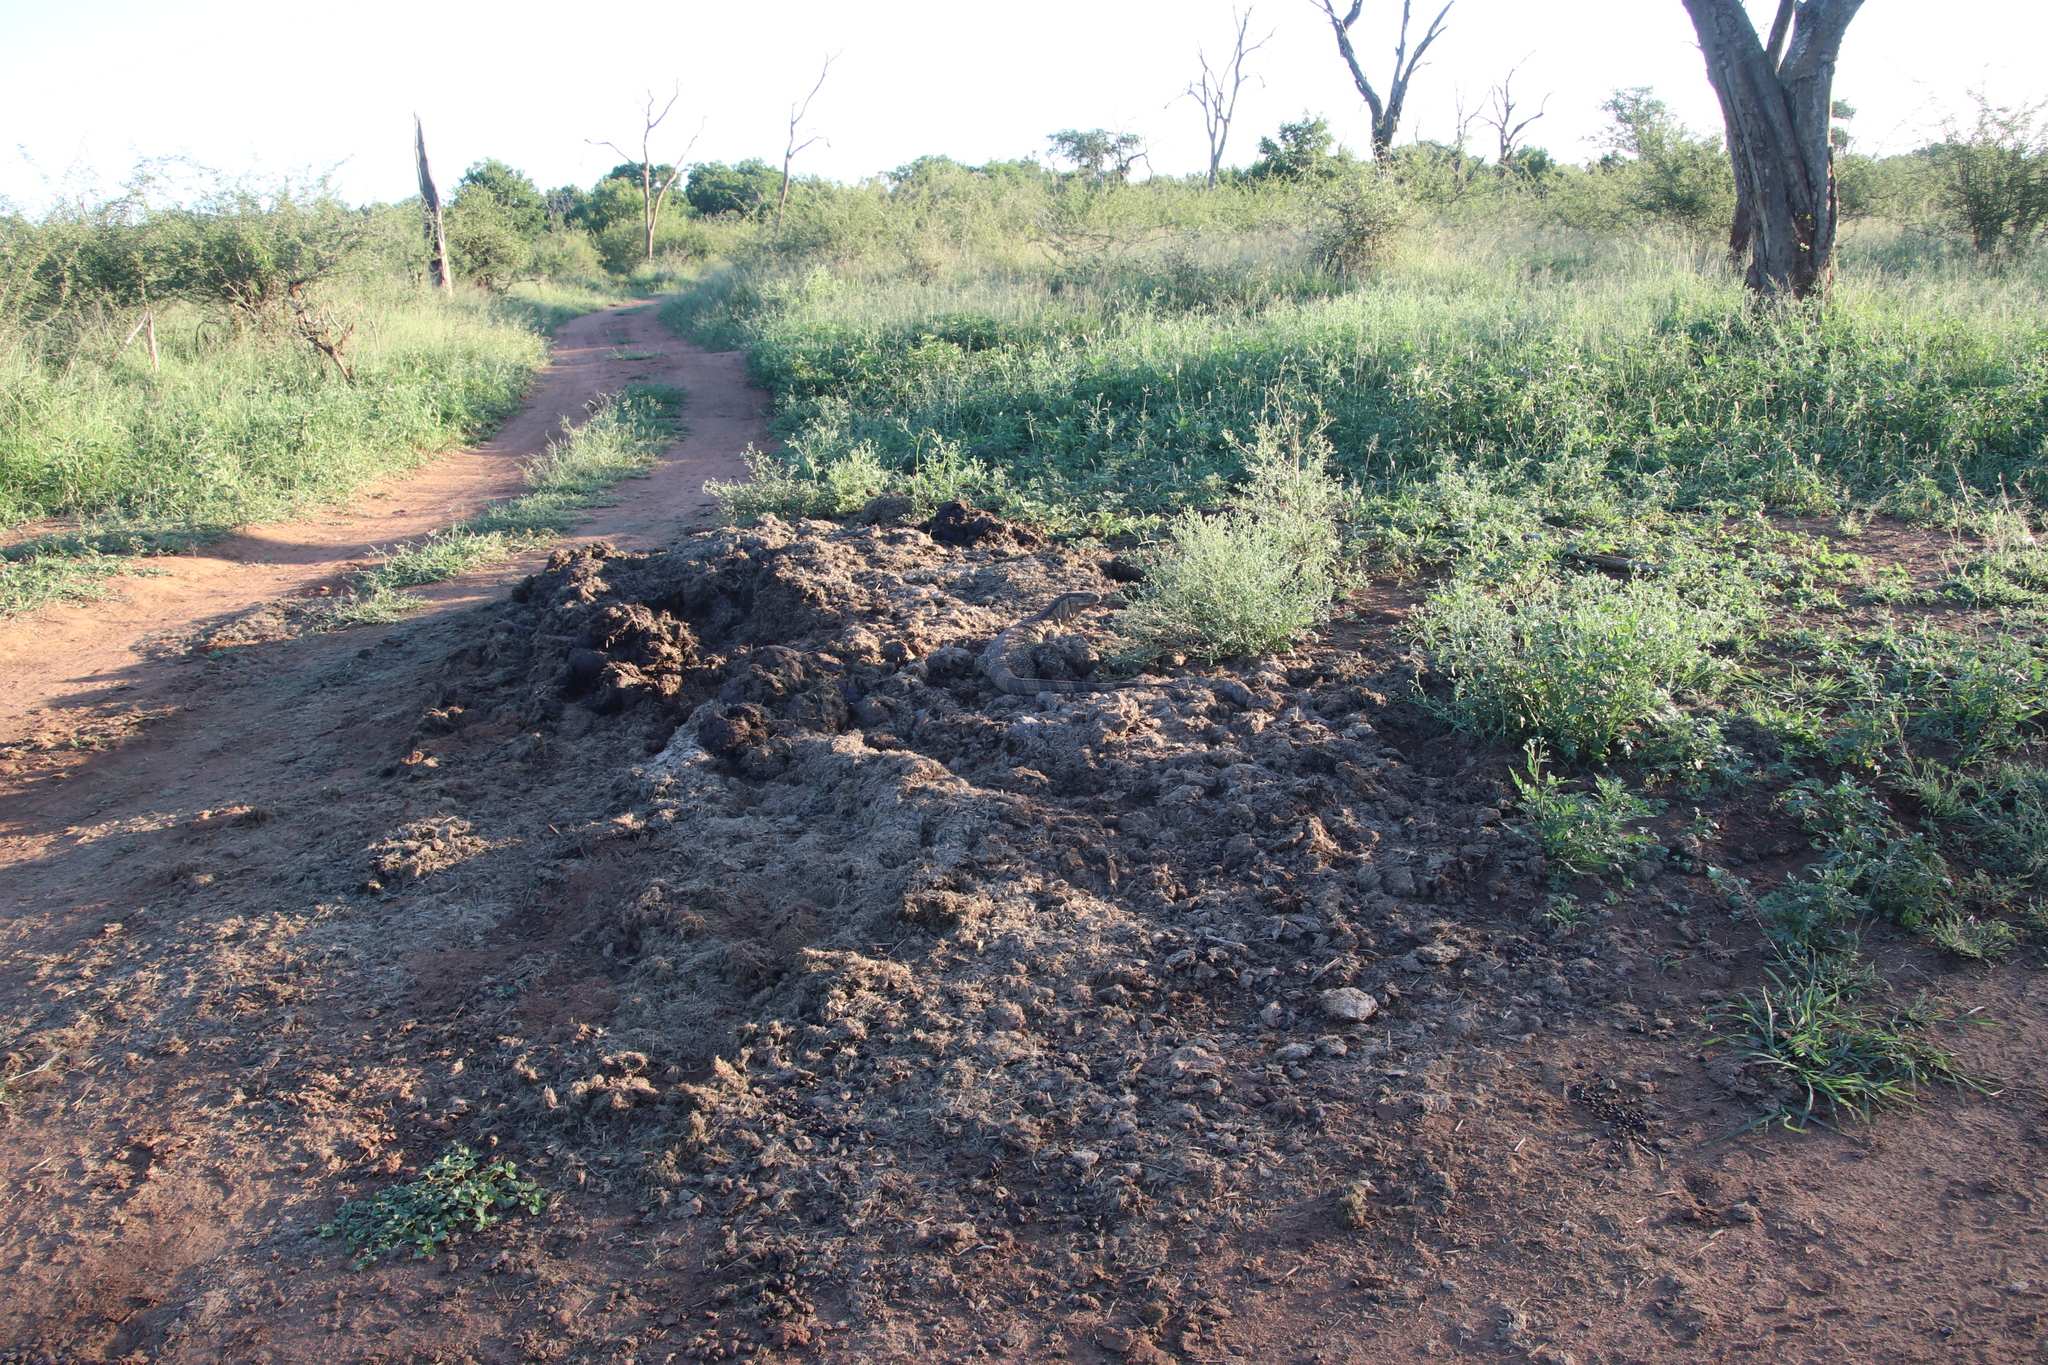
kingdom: Animalia
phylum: Chordata
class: Squamata
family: Varanidae
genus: Varanus
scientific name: Varanus albigularis
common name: White-throated monitor
